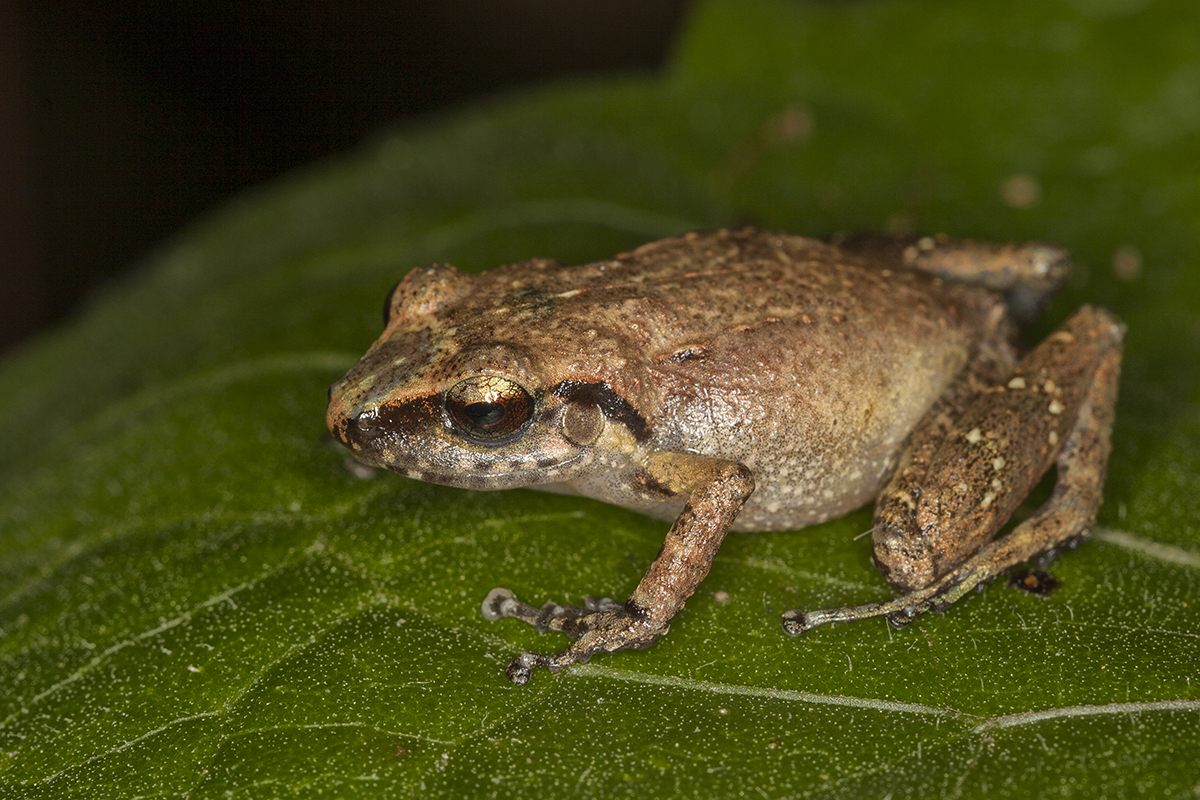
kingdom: Animalia
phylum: Chordata
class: Amphibia
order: Anura
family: Eleutherodactylidae
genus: Eleutherodactylus
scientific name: Eleutherodactylus minutus
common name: Hispaniolan wheeping frog
